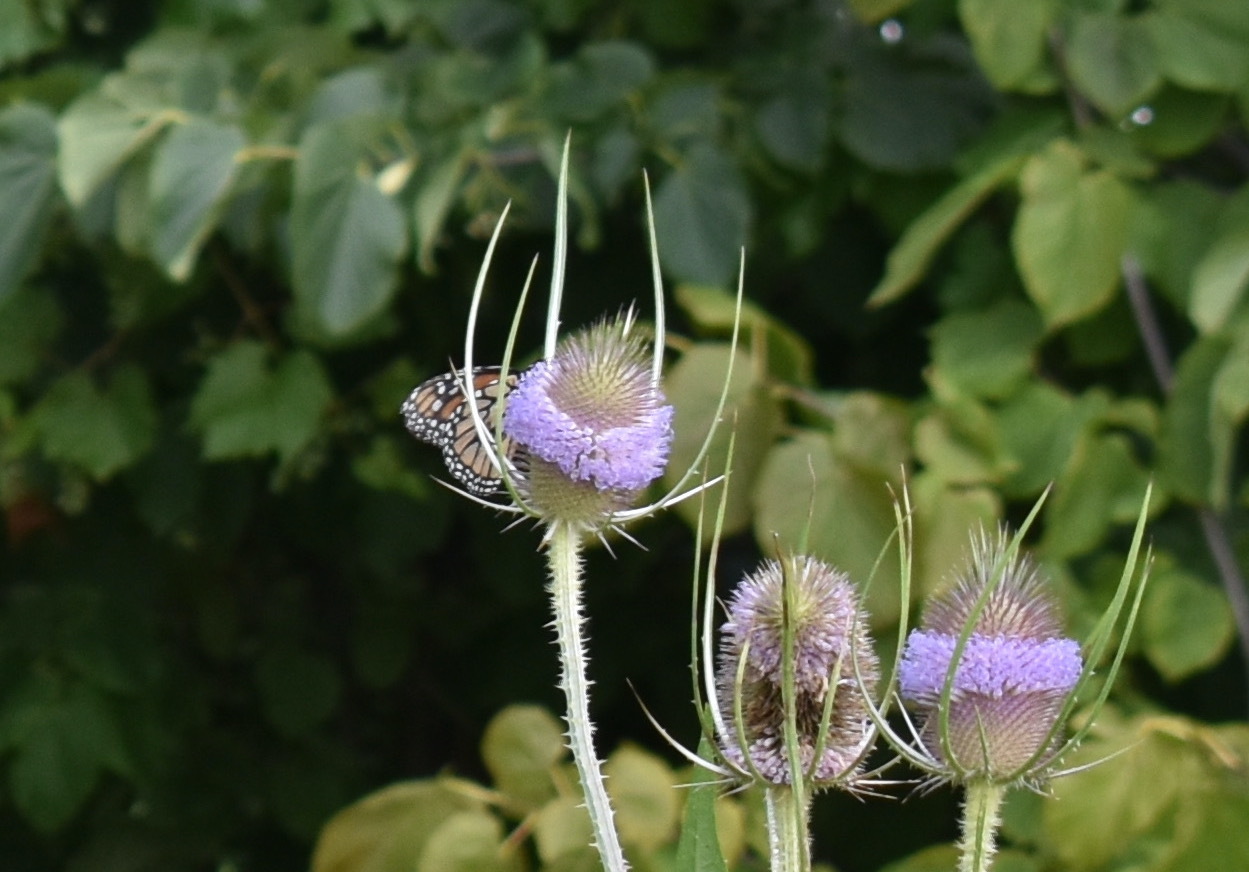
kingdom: Animalia
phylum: Arthropoda
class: Insecta
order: Lepidoptera
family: Nymphalidae
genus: Danaus
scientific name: Danaus plexippus
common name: Monarch
